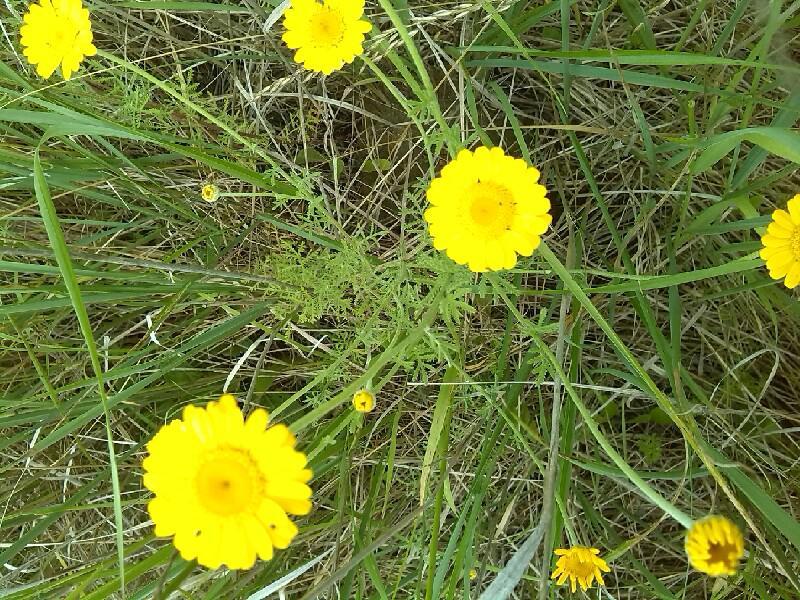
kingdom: Plantae
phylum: Tracheophyta
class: Magnoliopsida
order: Asterales
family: Asteraceae
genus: Cota
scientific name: Cota tinctoria
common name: Golden chamomile
